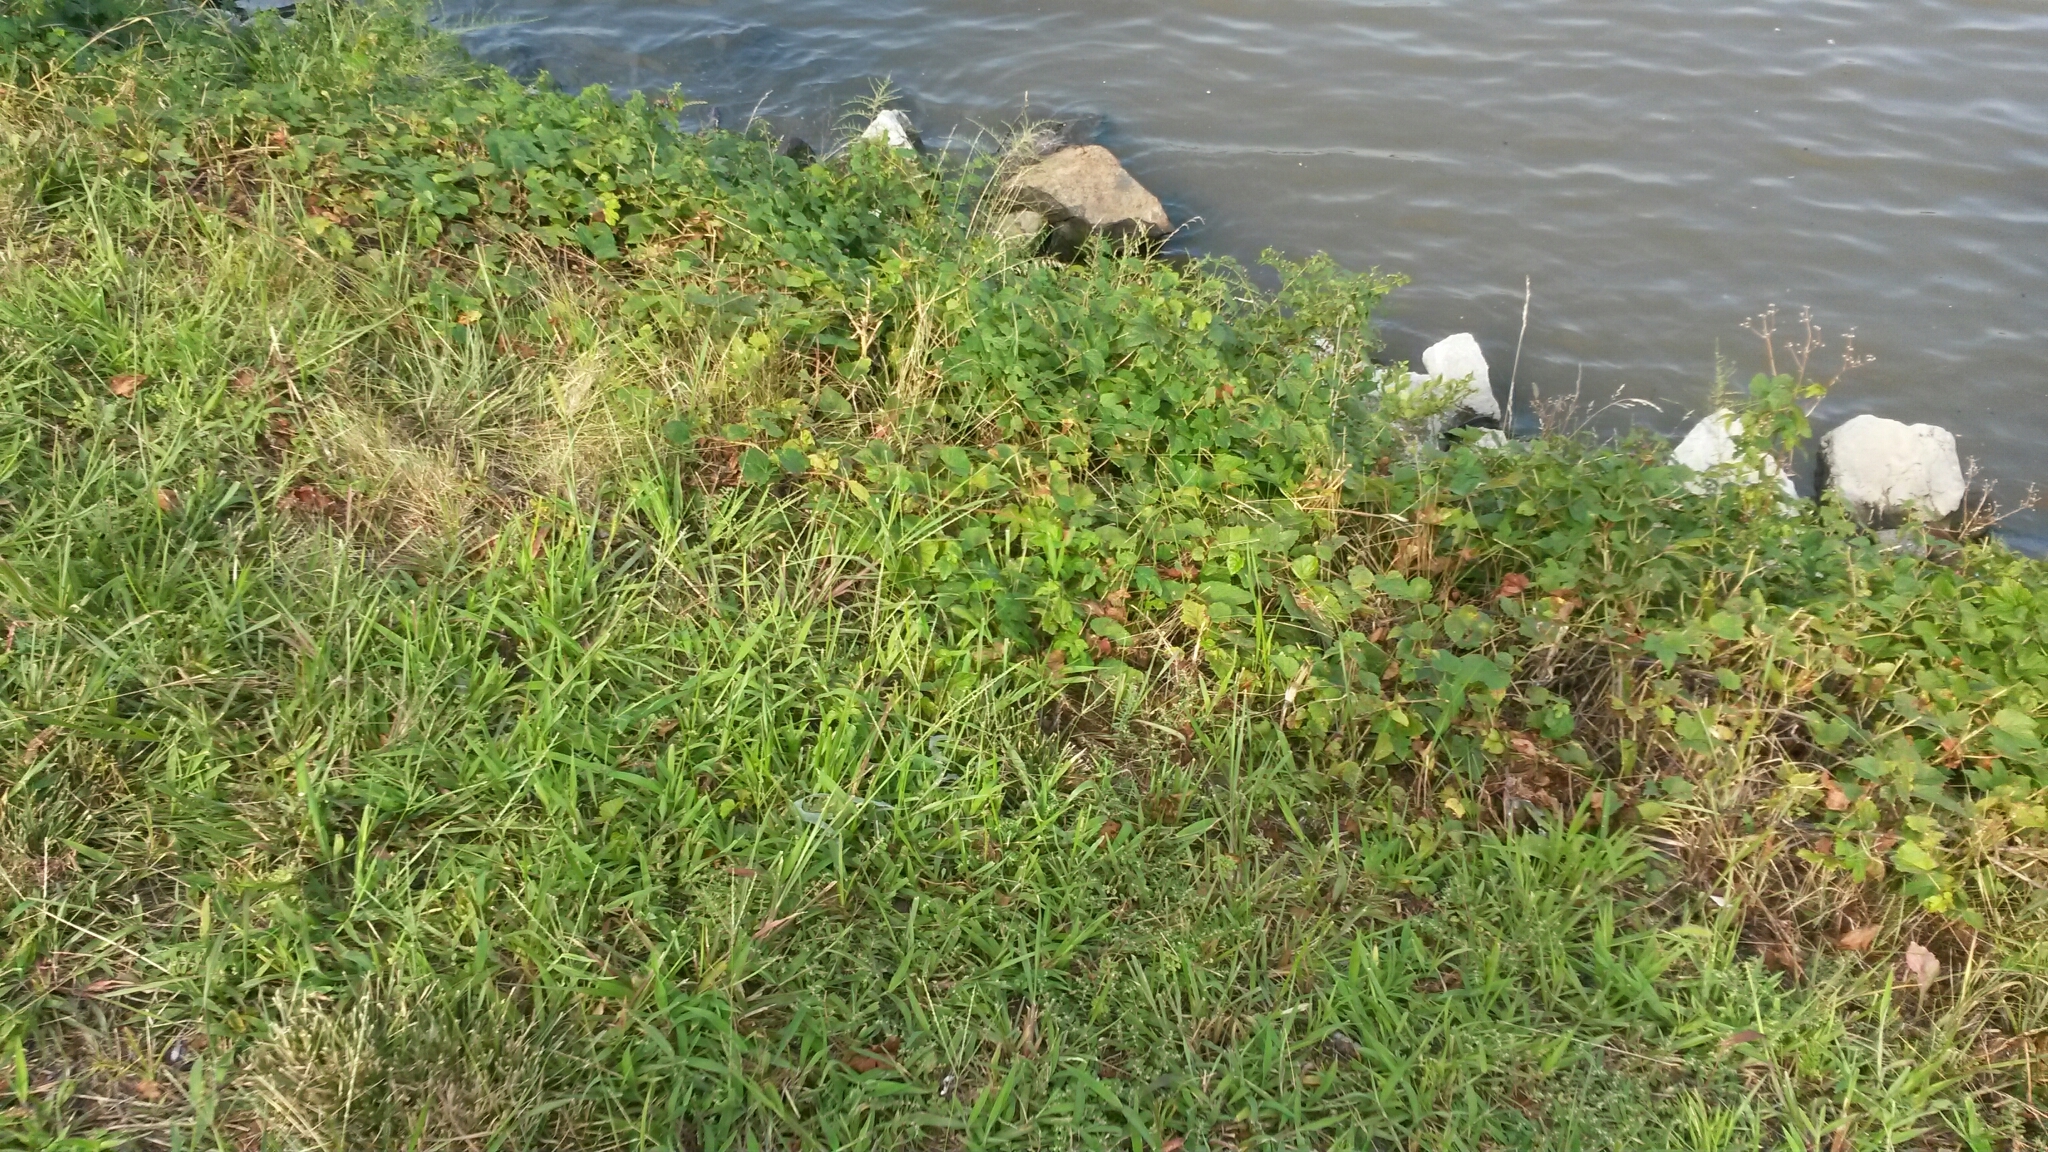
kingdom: Plantae
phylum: Tracheophyta
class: Magnoliopsida
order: Vitales
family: Vitaceae
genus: Ampelopsis
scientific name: Ampelopsis glandulosa
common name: Amur peppervine
